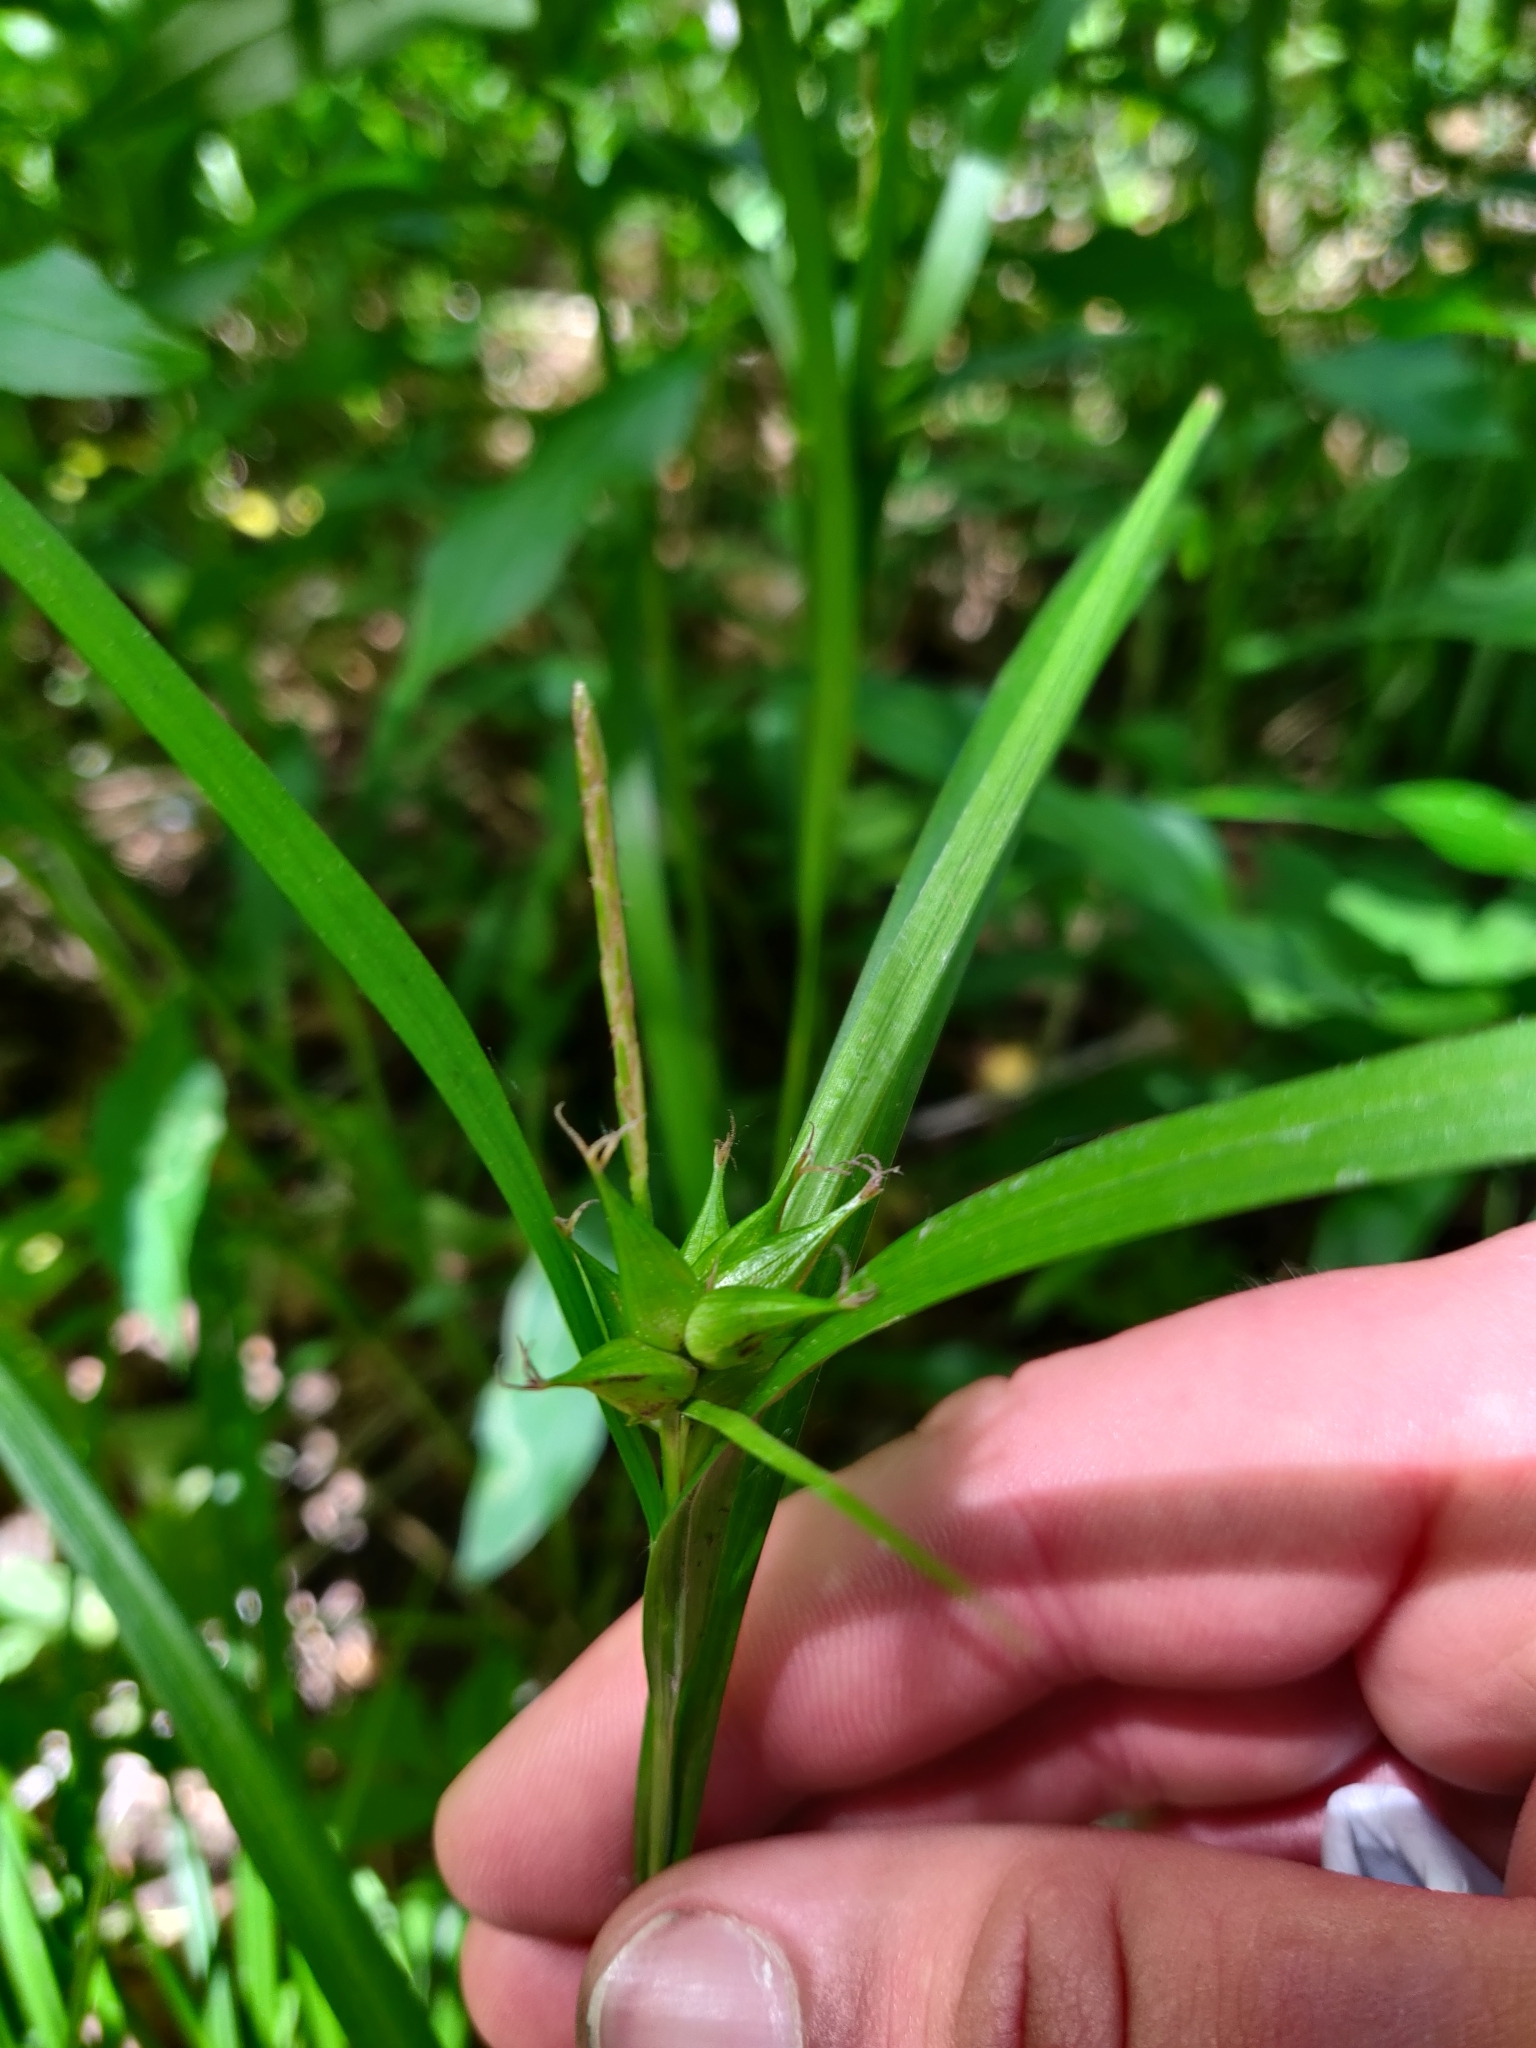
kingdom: Plantae
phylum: Tracheophyta
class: Liliopsida
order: Poales
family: Cyperaceae
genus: Carex
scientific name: Carex intumescens
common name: Greater bladder sedge
